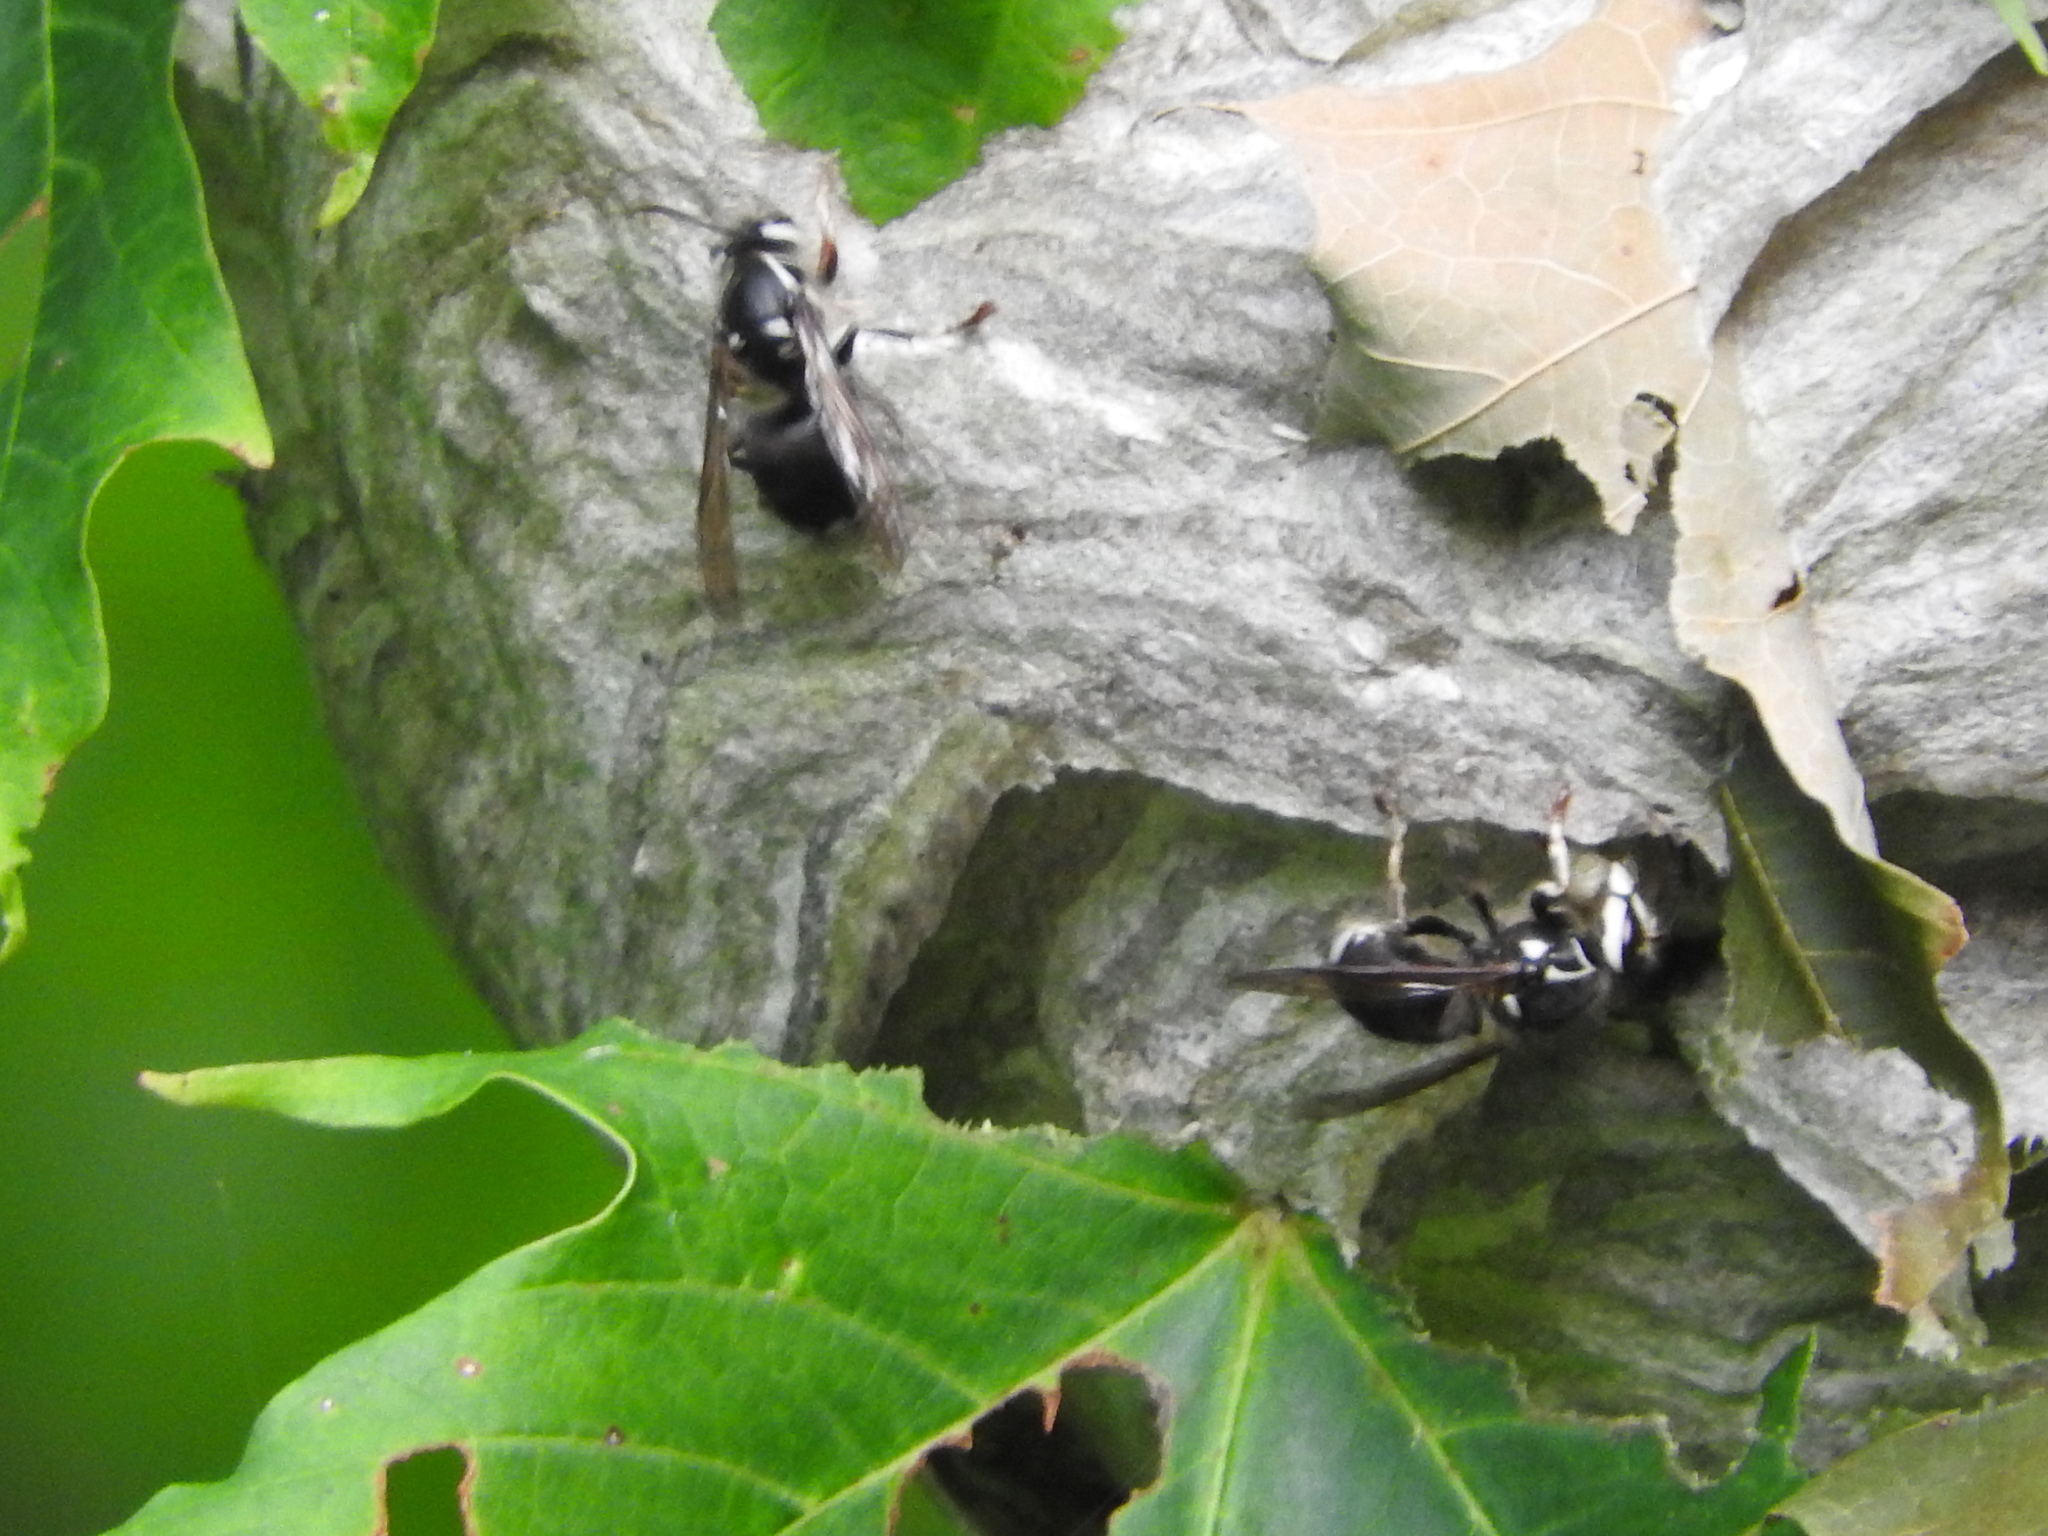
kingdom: Animalia
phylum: Arthropoda
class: Insecta
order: Hymenoptera
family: Vespidae
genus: Dolichovespula
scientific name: Dolichovespula maculata
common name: Bald-faced hornet
